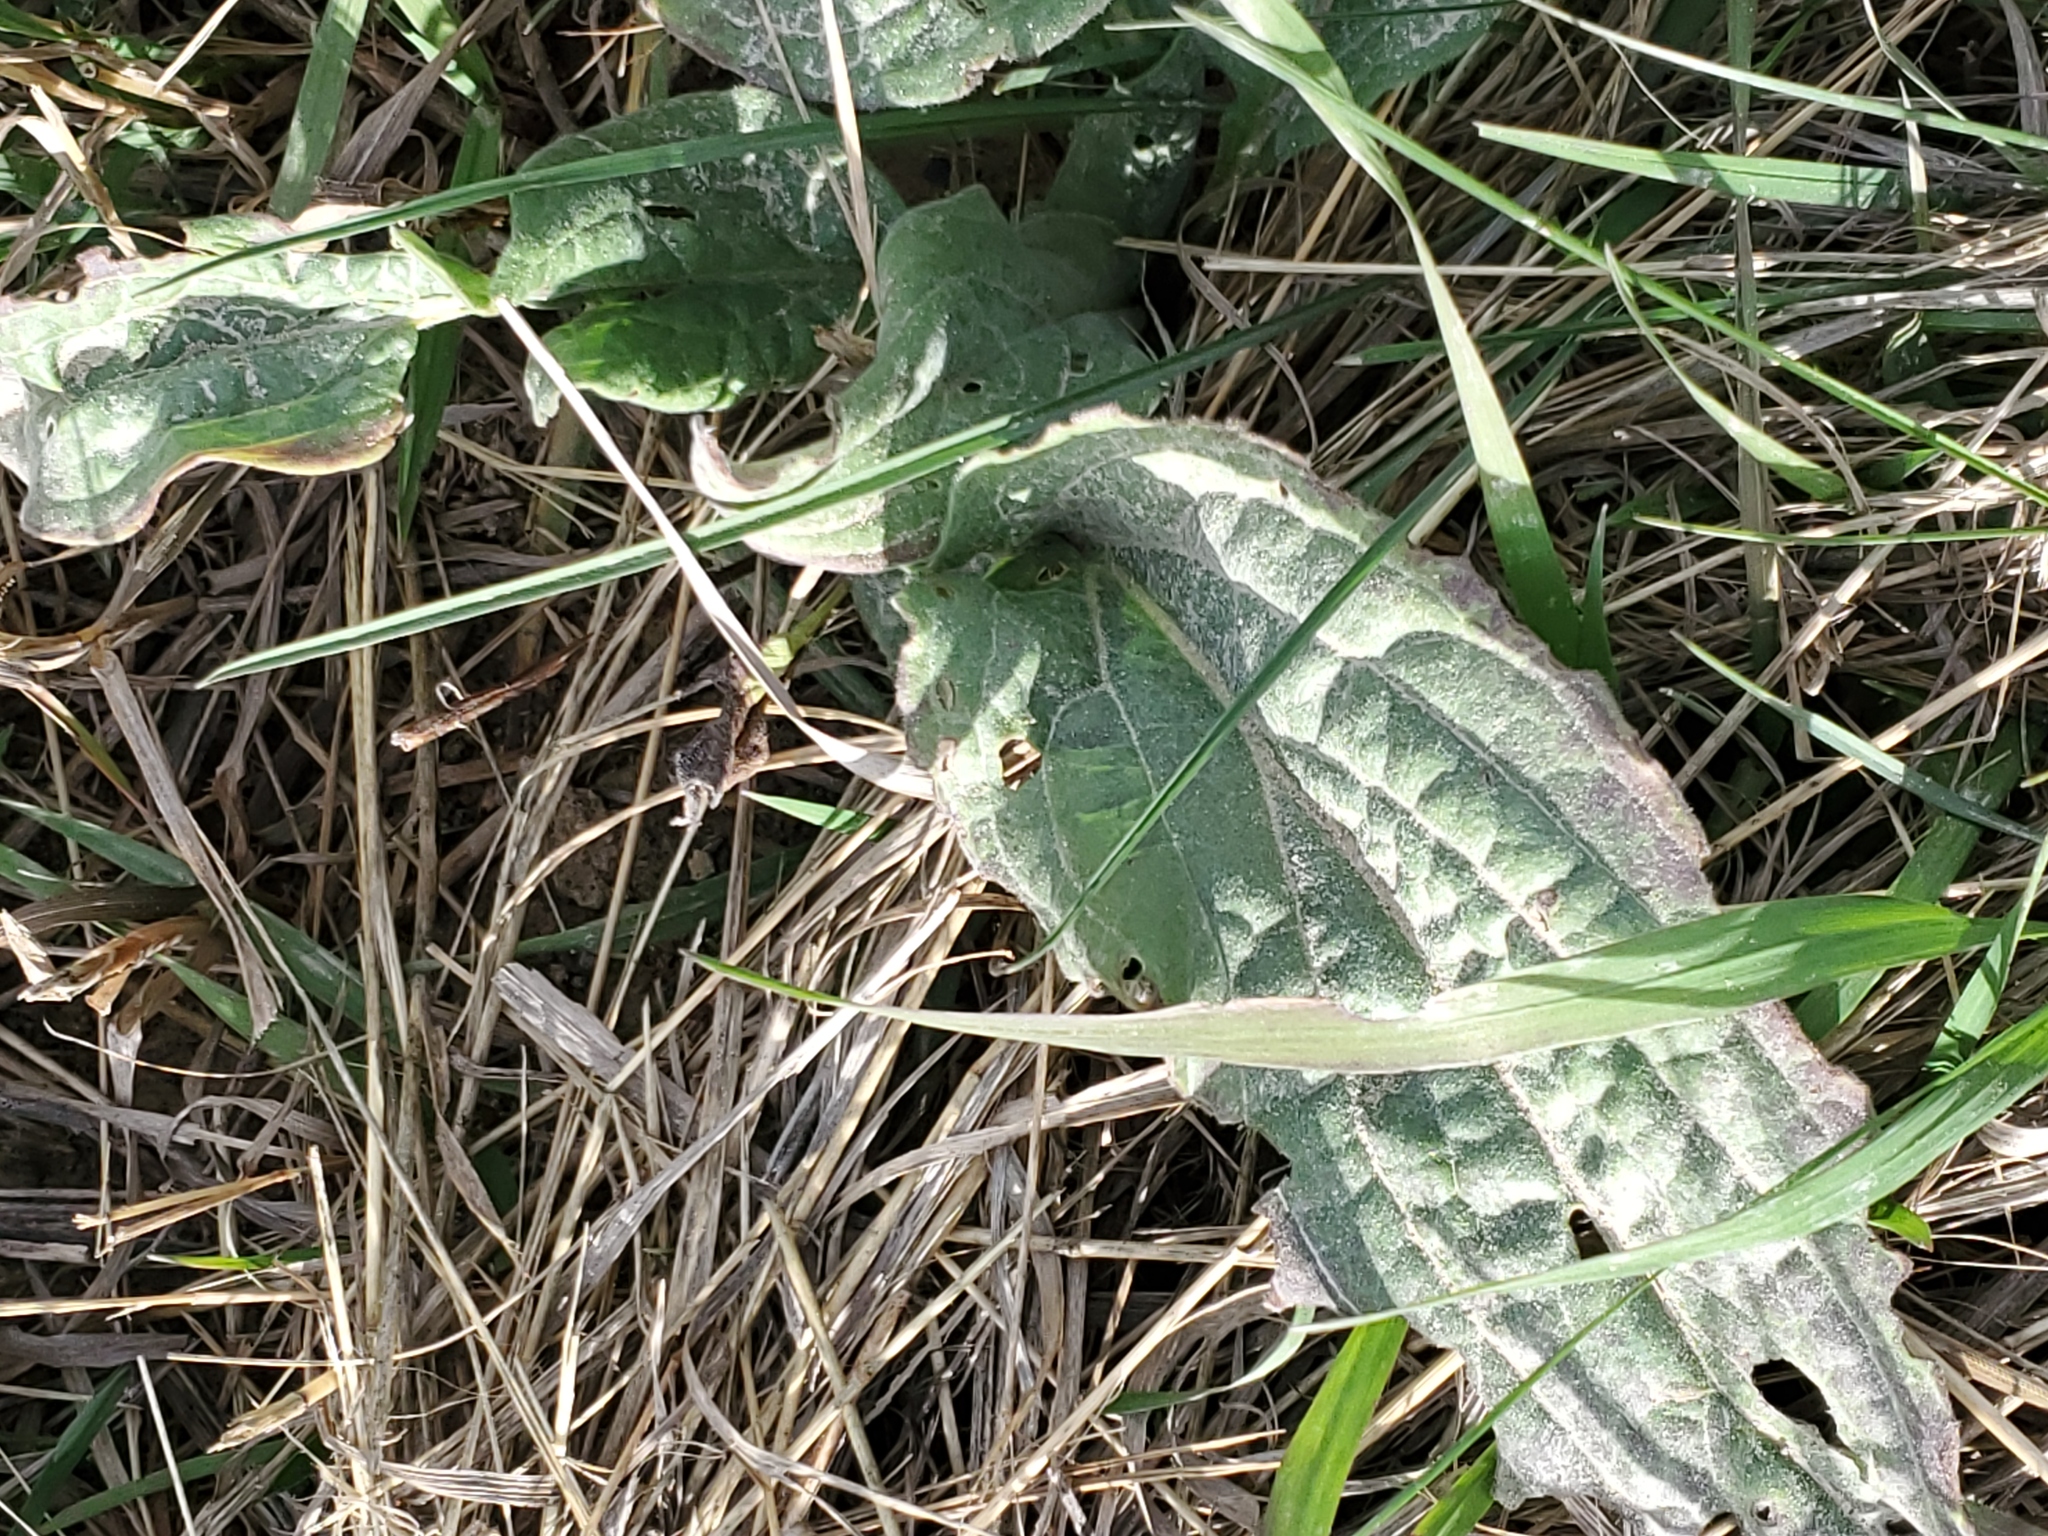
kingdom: Plantae
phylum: Tracheophyta
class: Magnoliopsida
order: Boraginales
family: Boraginaceae
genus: Cynoglossum
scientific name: Cynoglossum officinale
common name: Hound's-tongue
